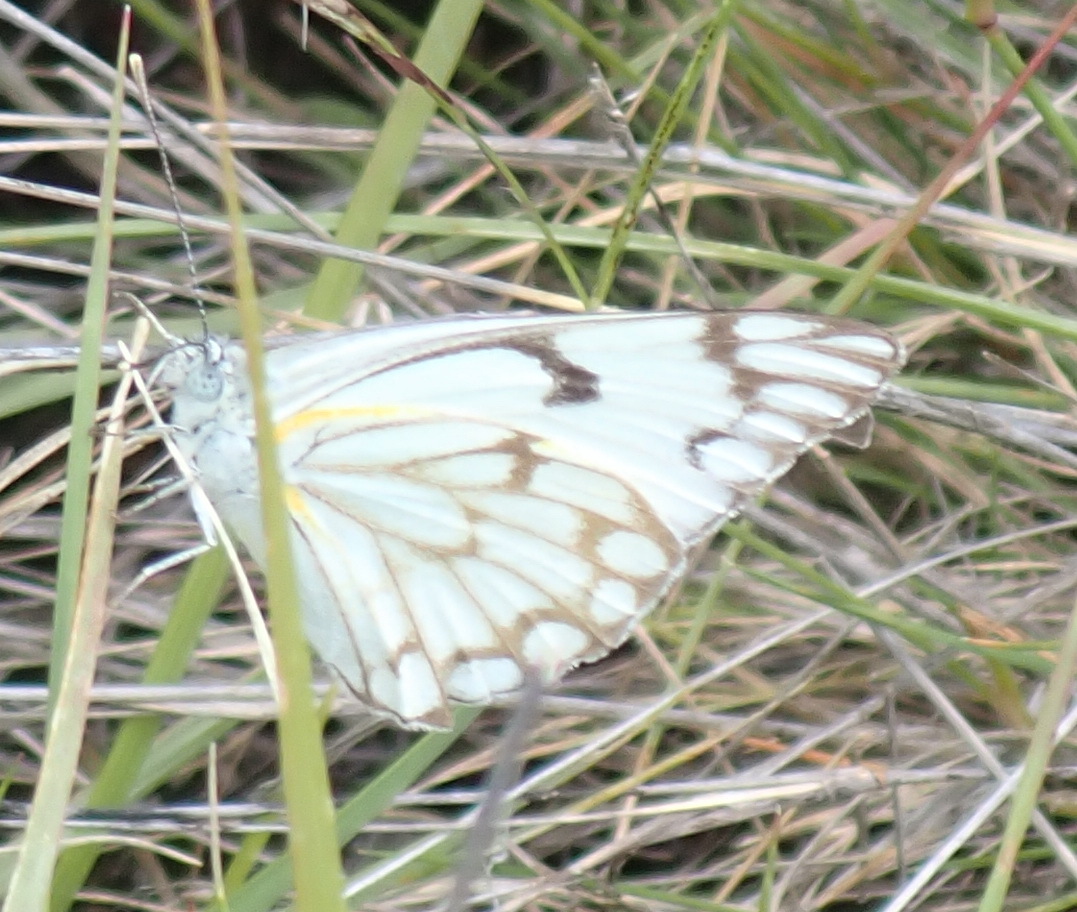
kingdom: Animalia
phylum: Arthropoda
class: Insecta
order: Lepidoptera
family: Pieridae
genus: Belenois
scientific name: Belenois aurota
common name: Brown-veined white
